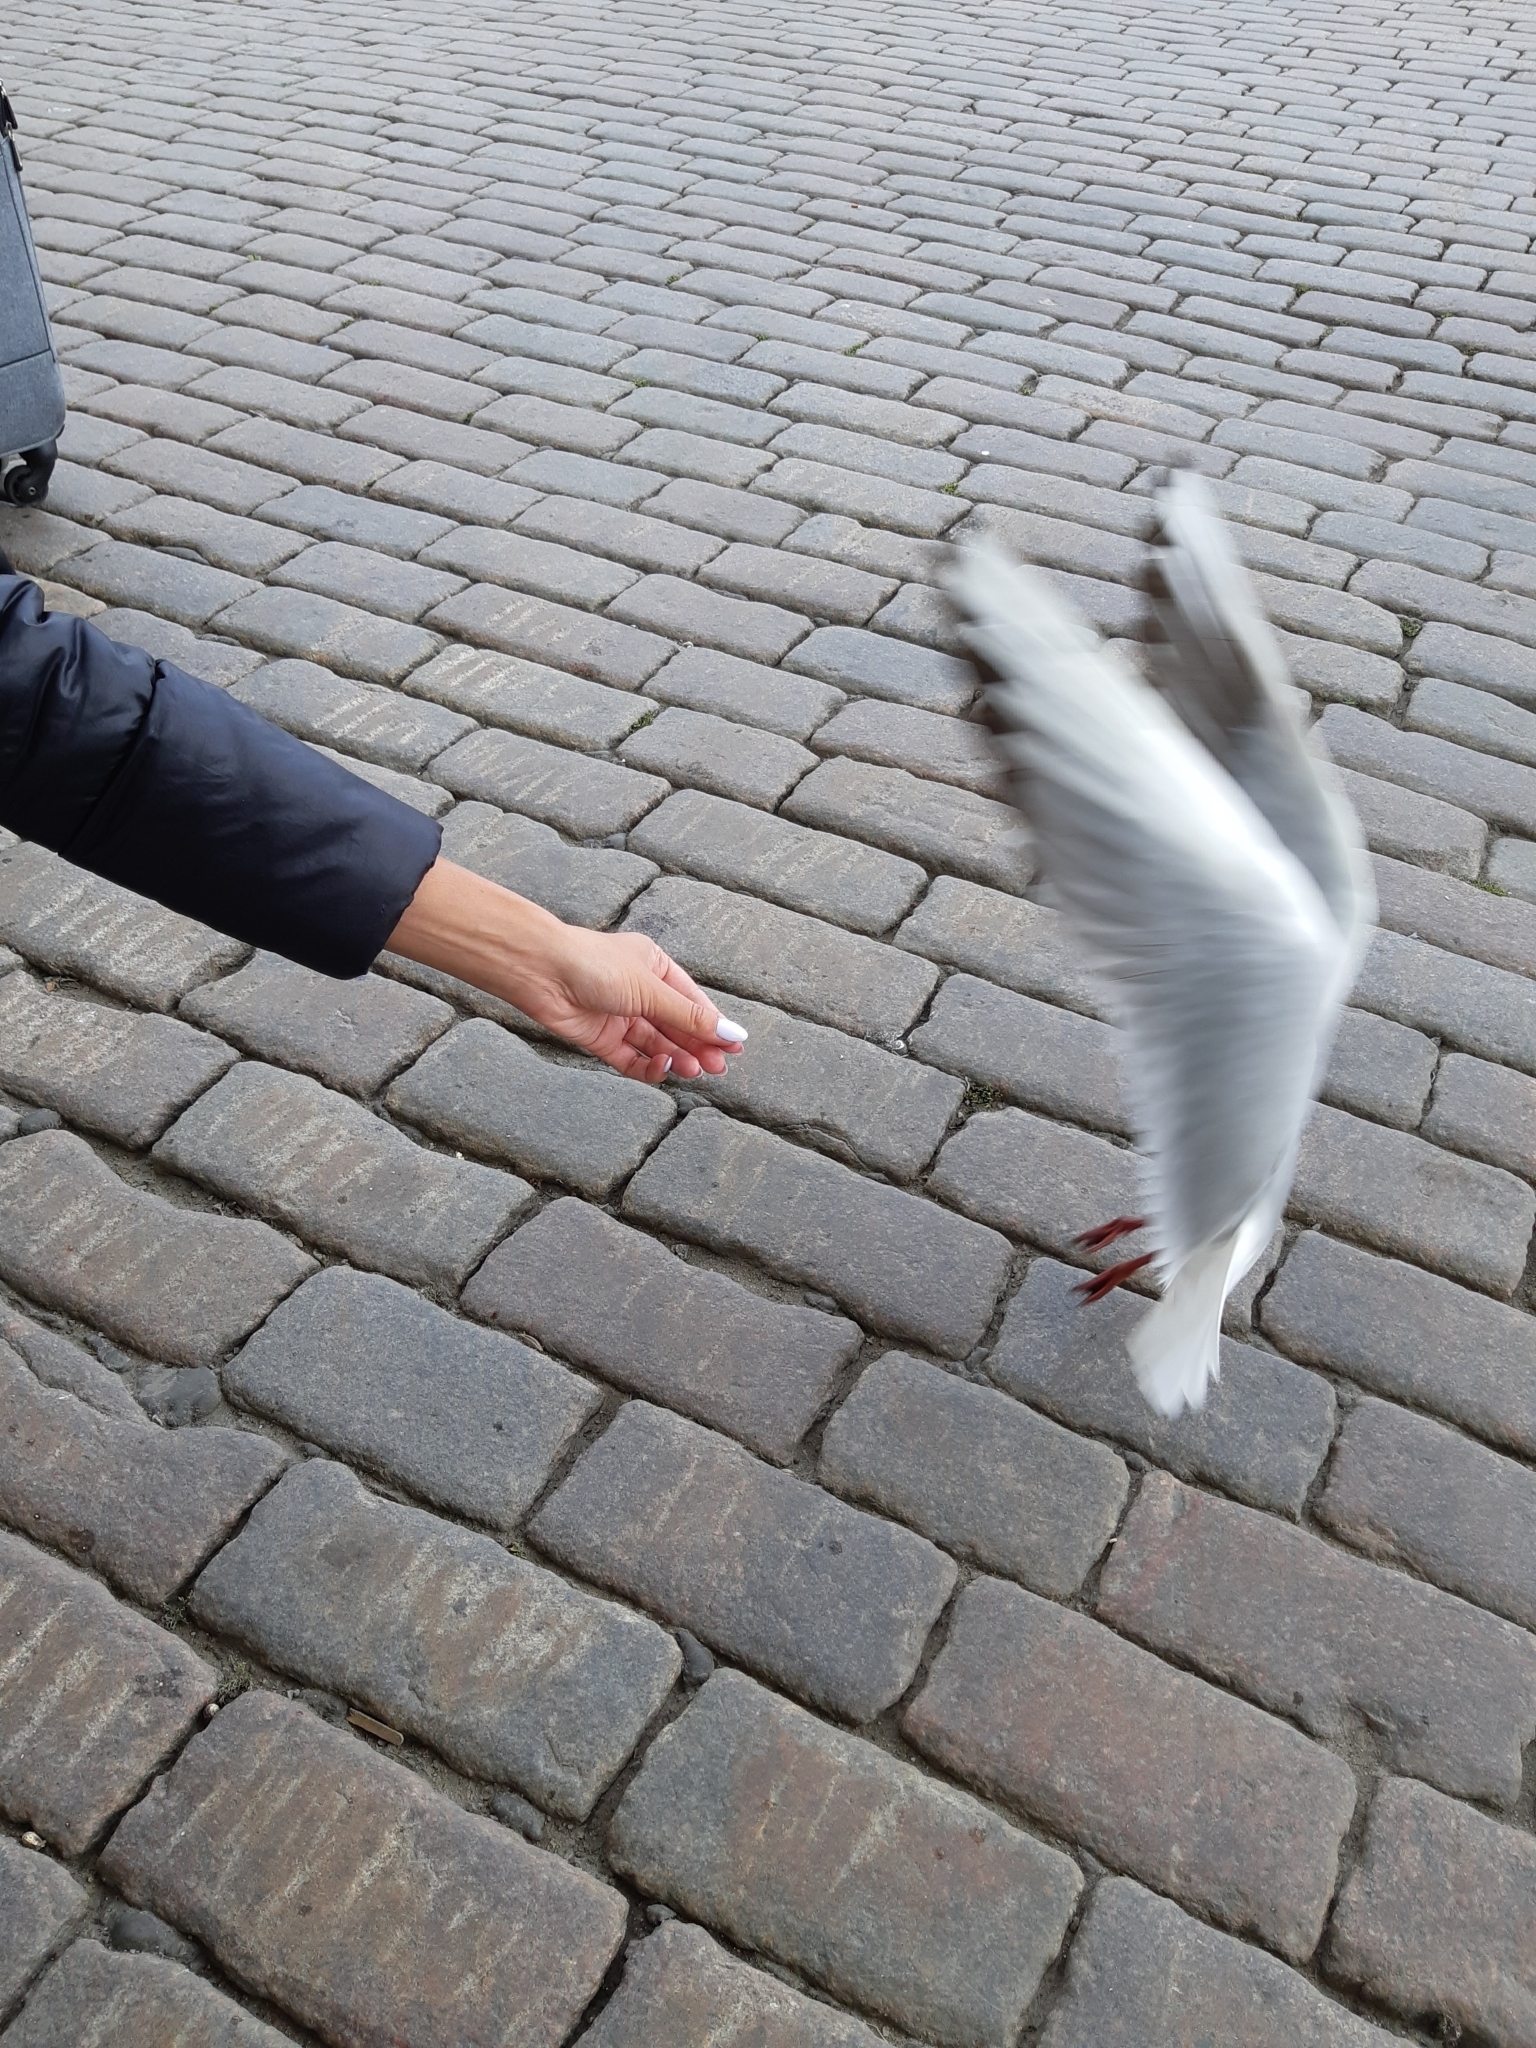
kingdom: Animalia
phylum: Chordata
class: Aves
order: Charadriiformes
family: Laridae
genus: Chroicocephalus
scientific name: Chroicocephalus ridibundus
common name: Black-headed gull
